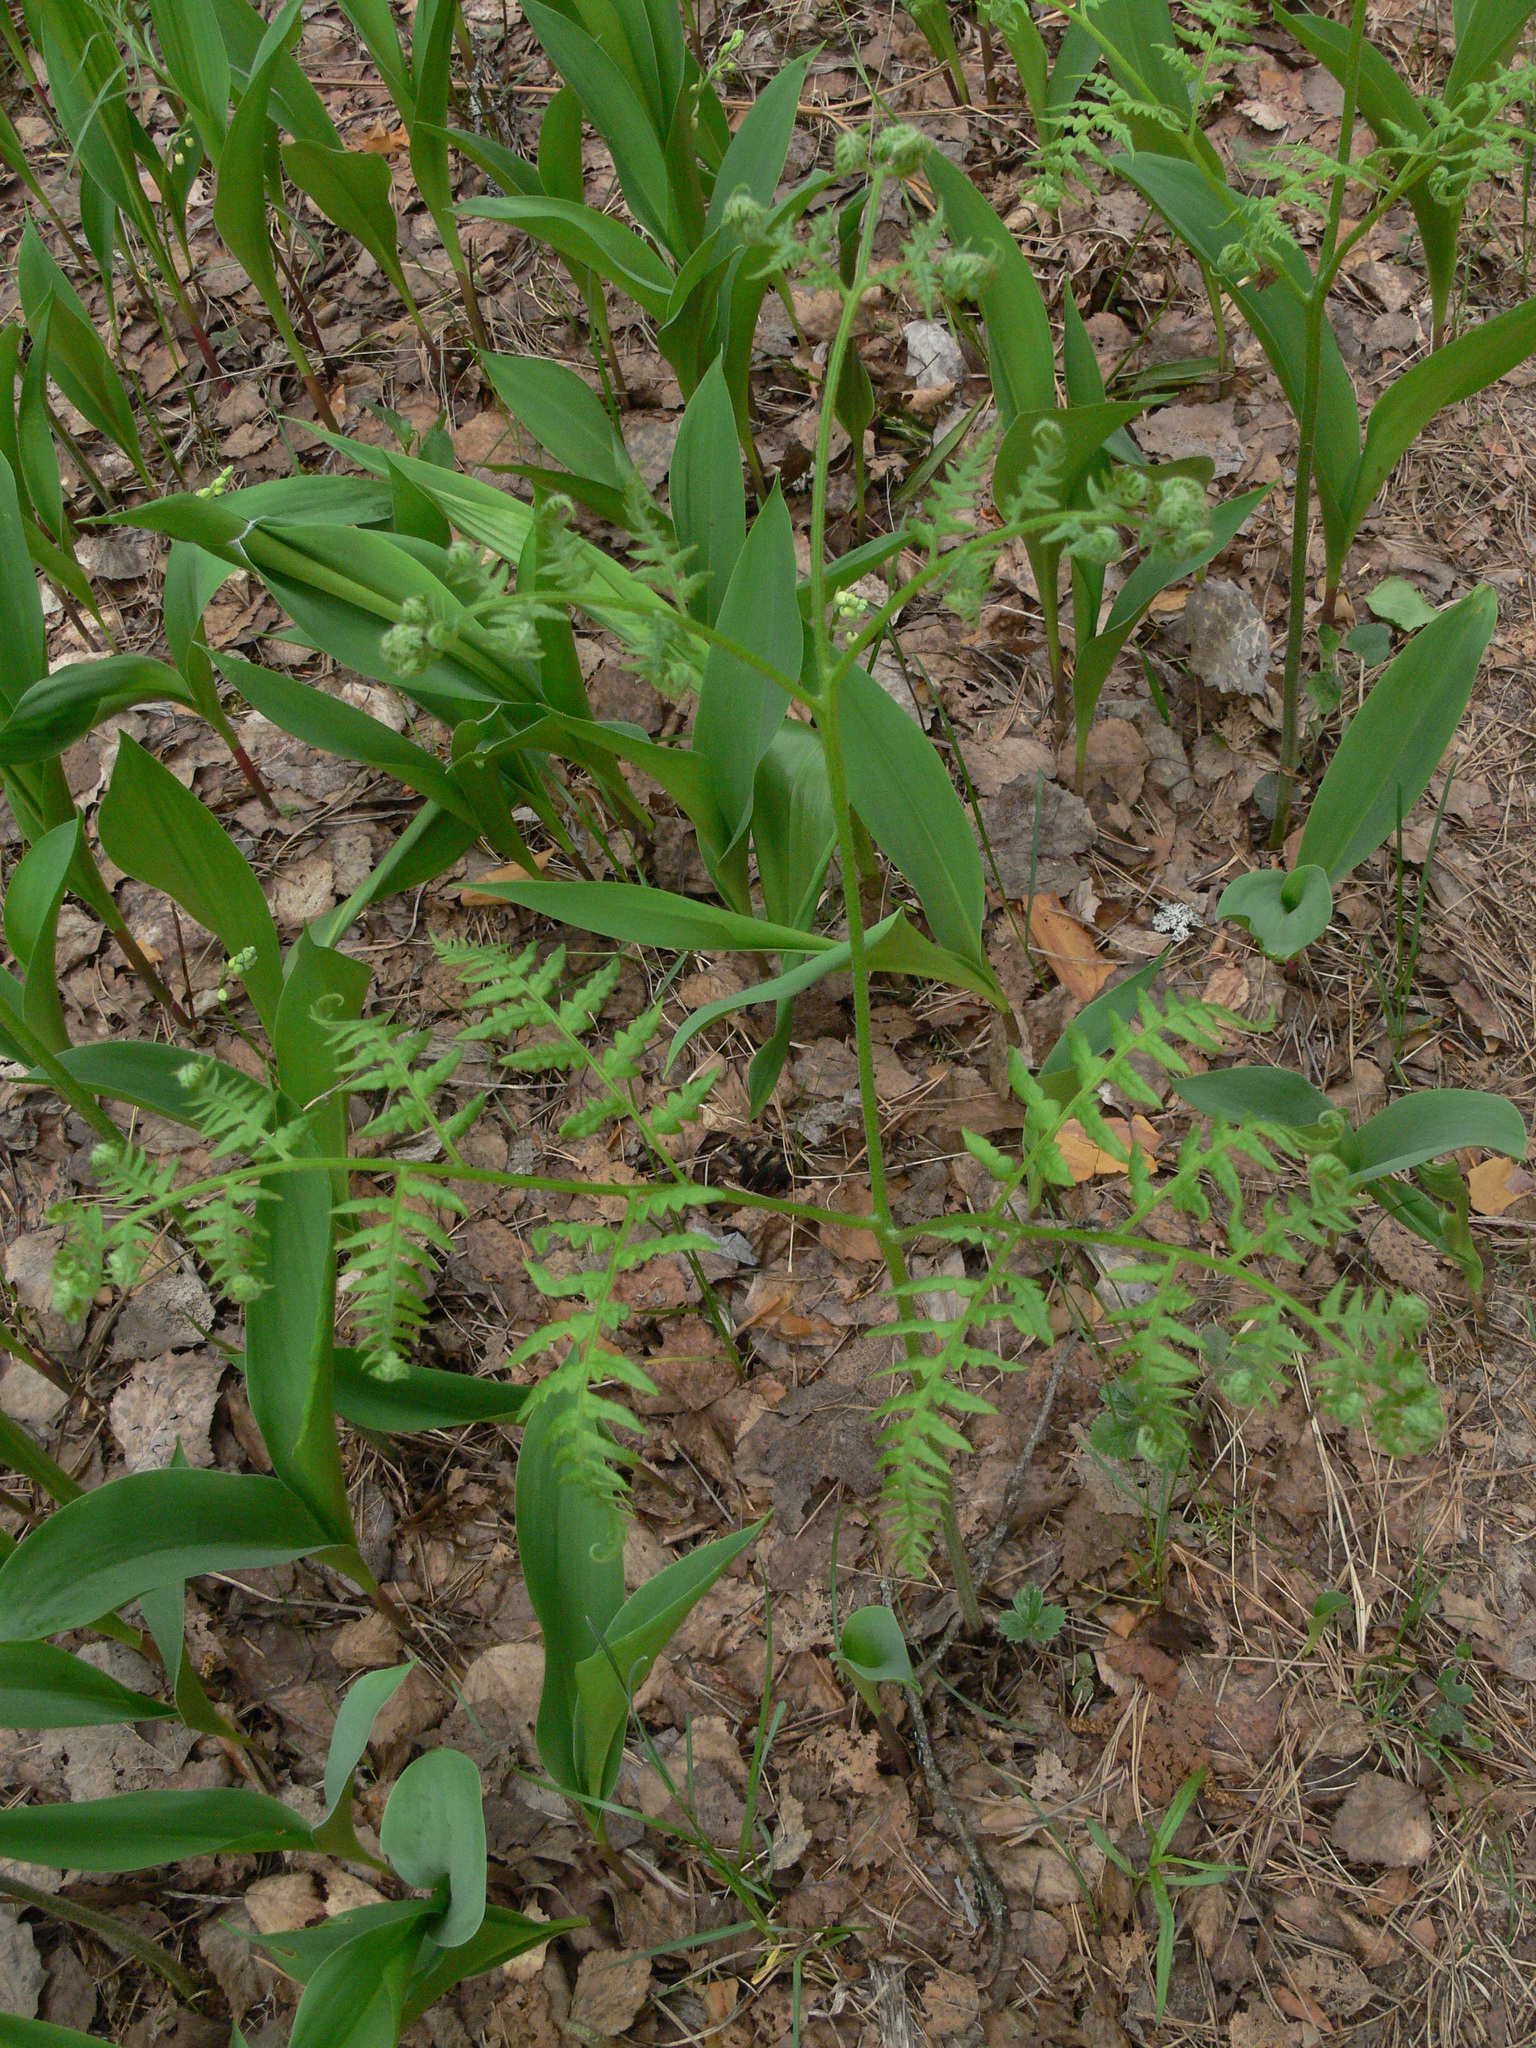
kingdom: Plantae
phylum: Tracheophyta
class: Polypodiopsida
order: Polypodiales
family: Dennstaedtiaceae
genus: Pteridium
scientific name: Pteridium aquilinum
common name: Bracken
